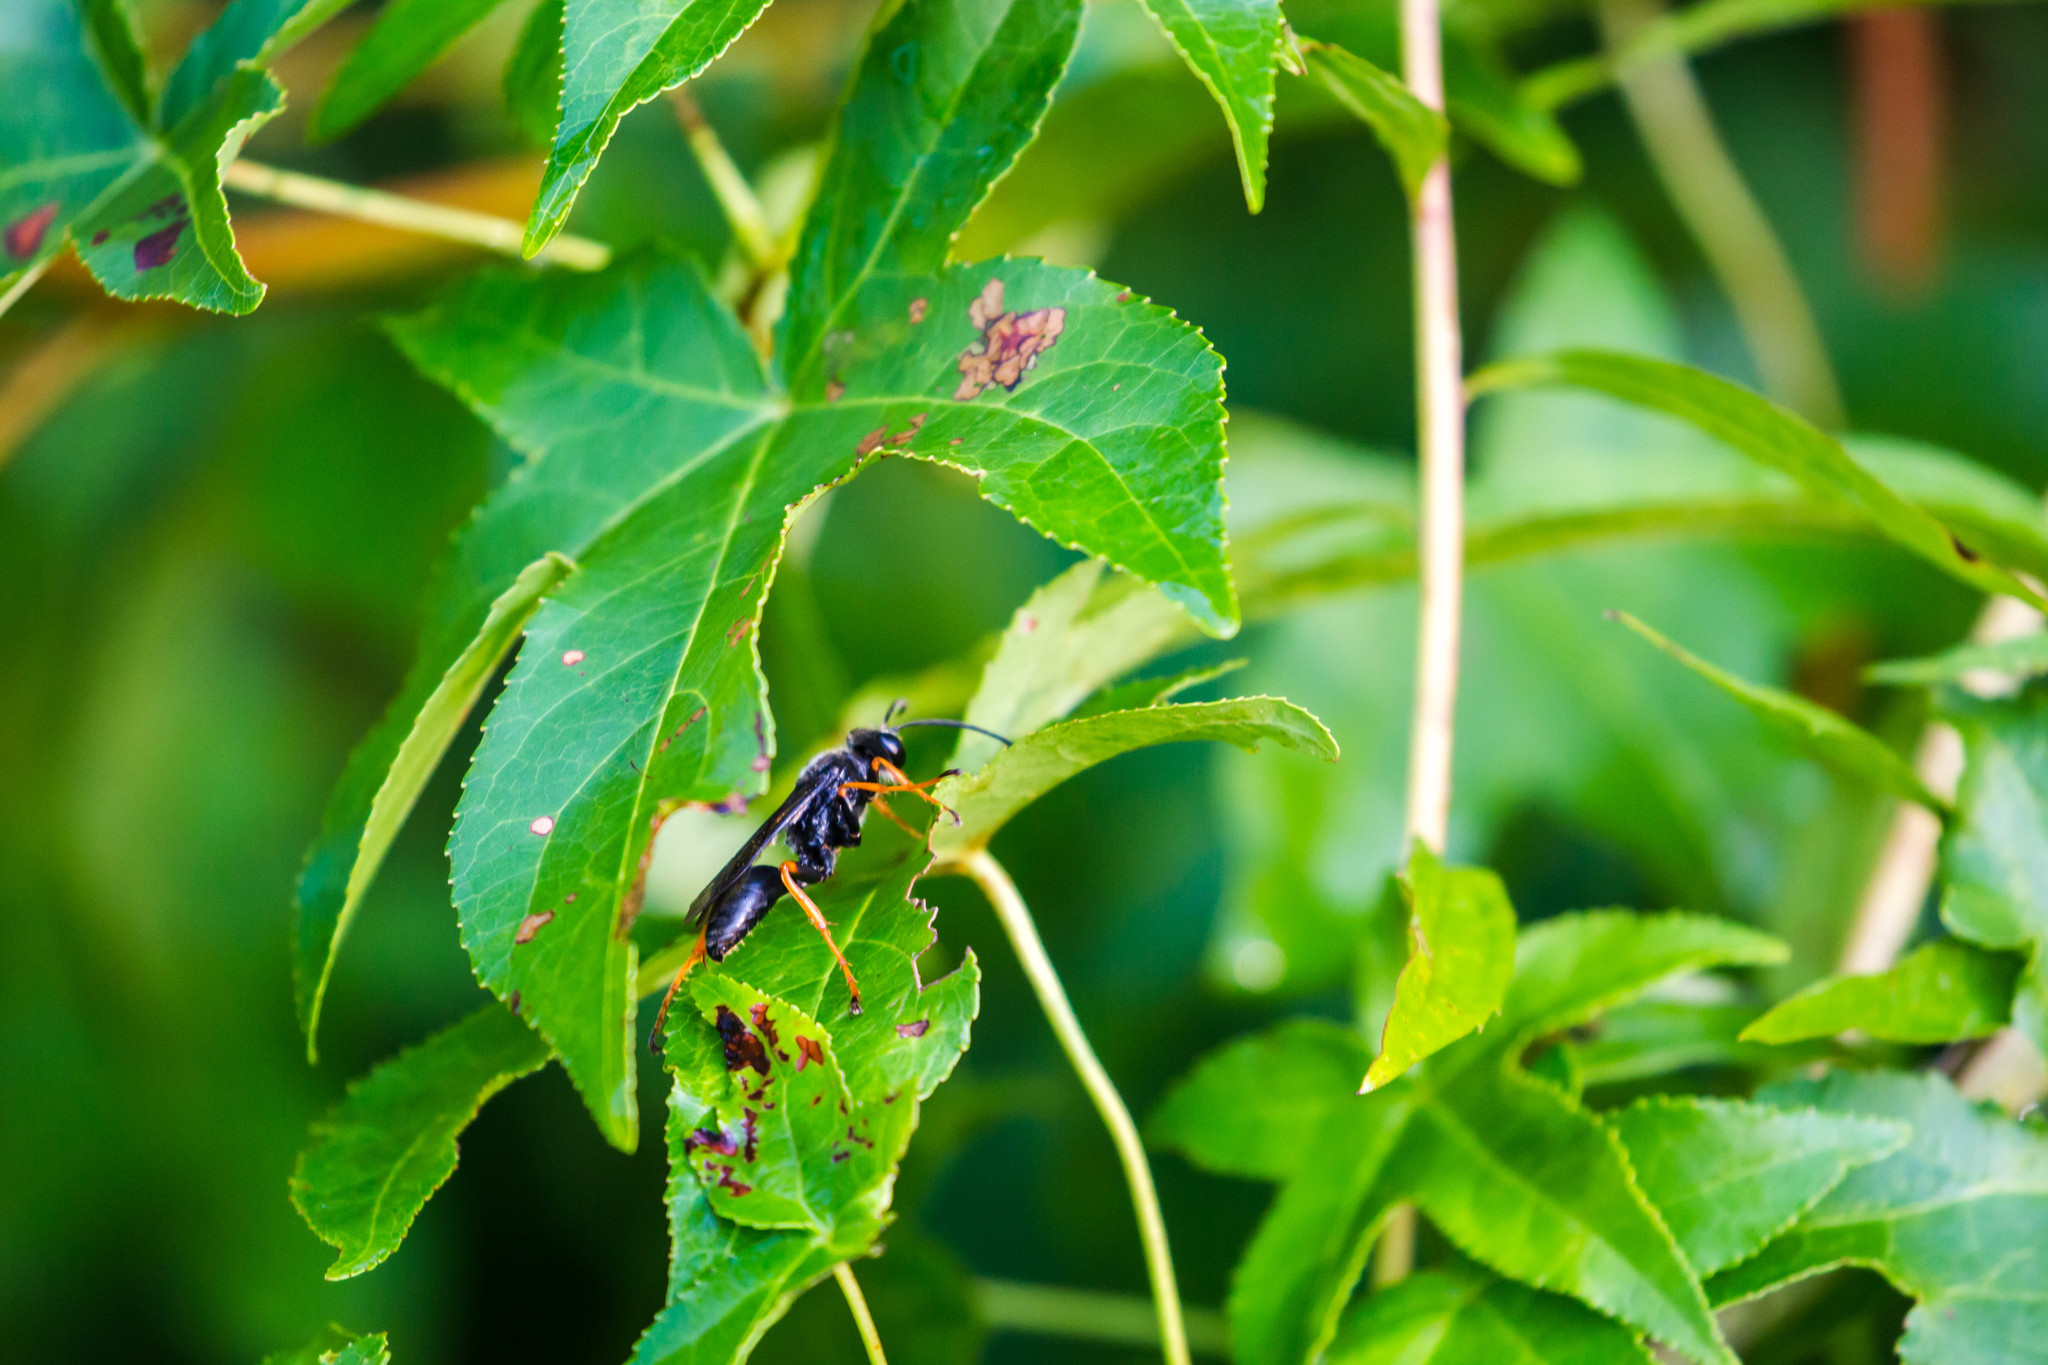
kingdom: Animalia
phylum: Arthropoda
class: Insecta
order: Hymenoptera
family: Sphecidae
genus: Sphex
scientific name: Sphex nudus
